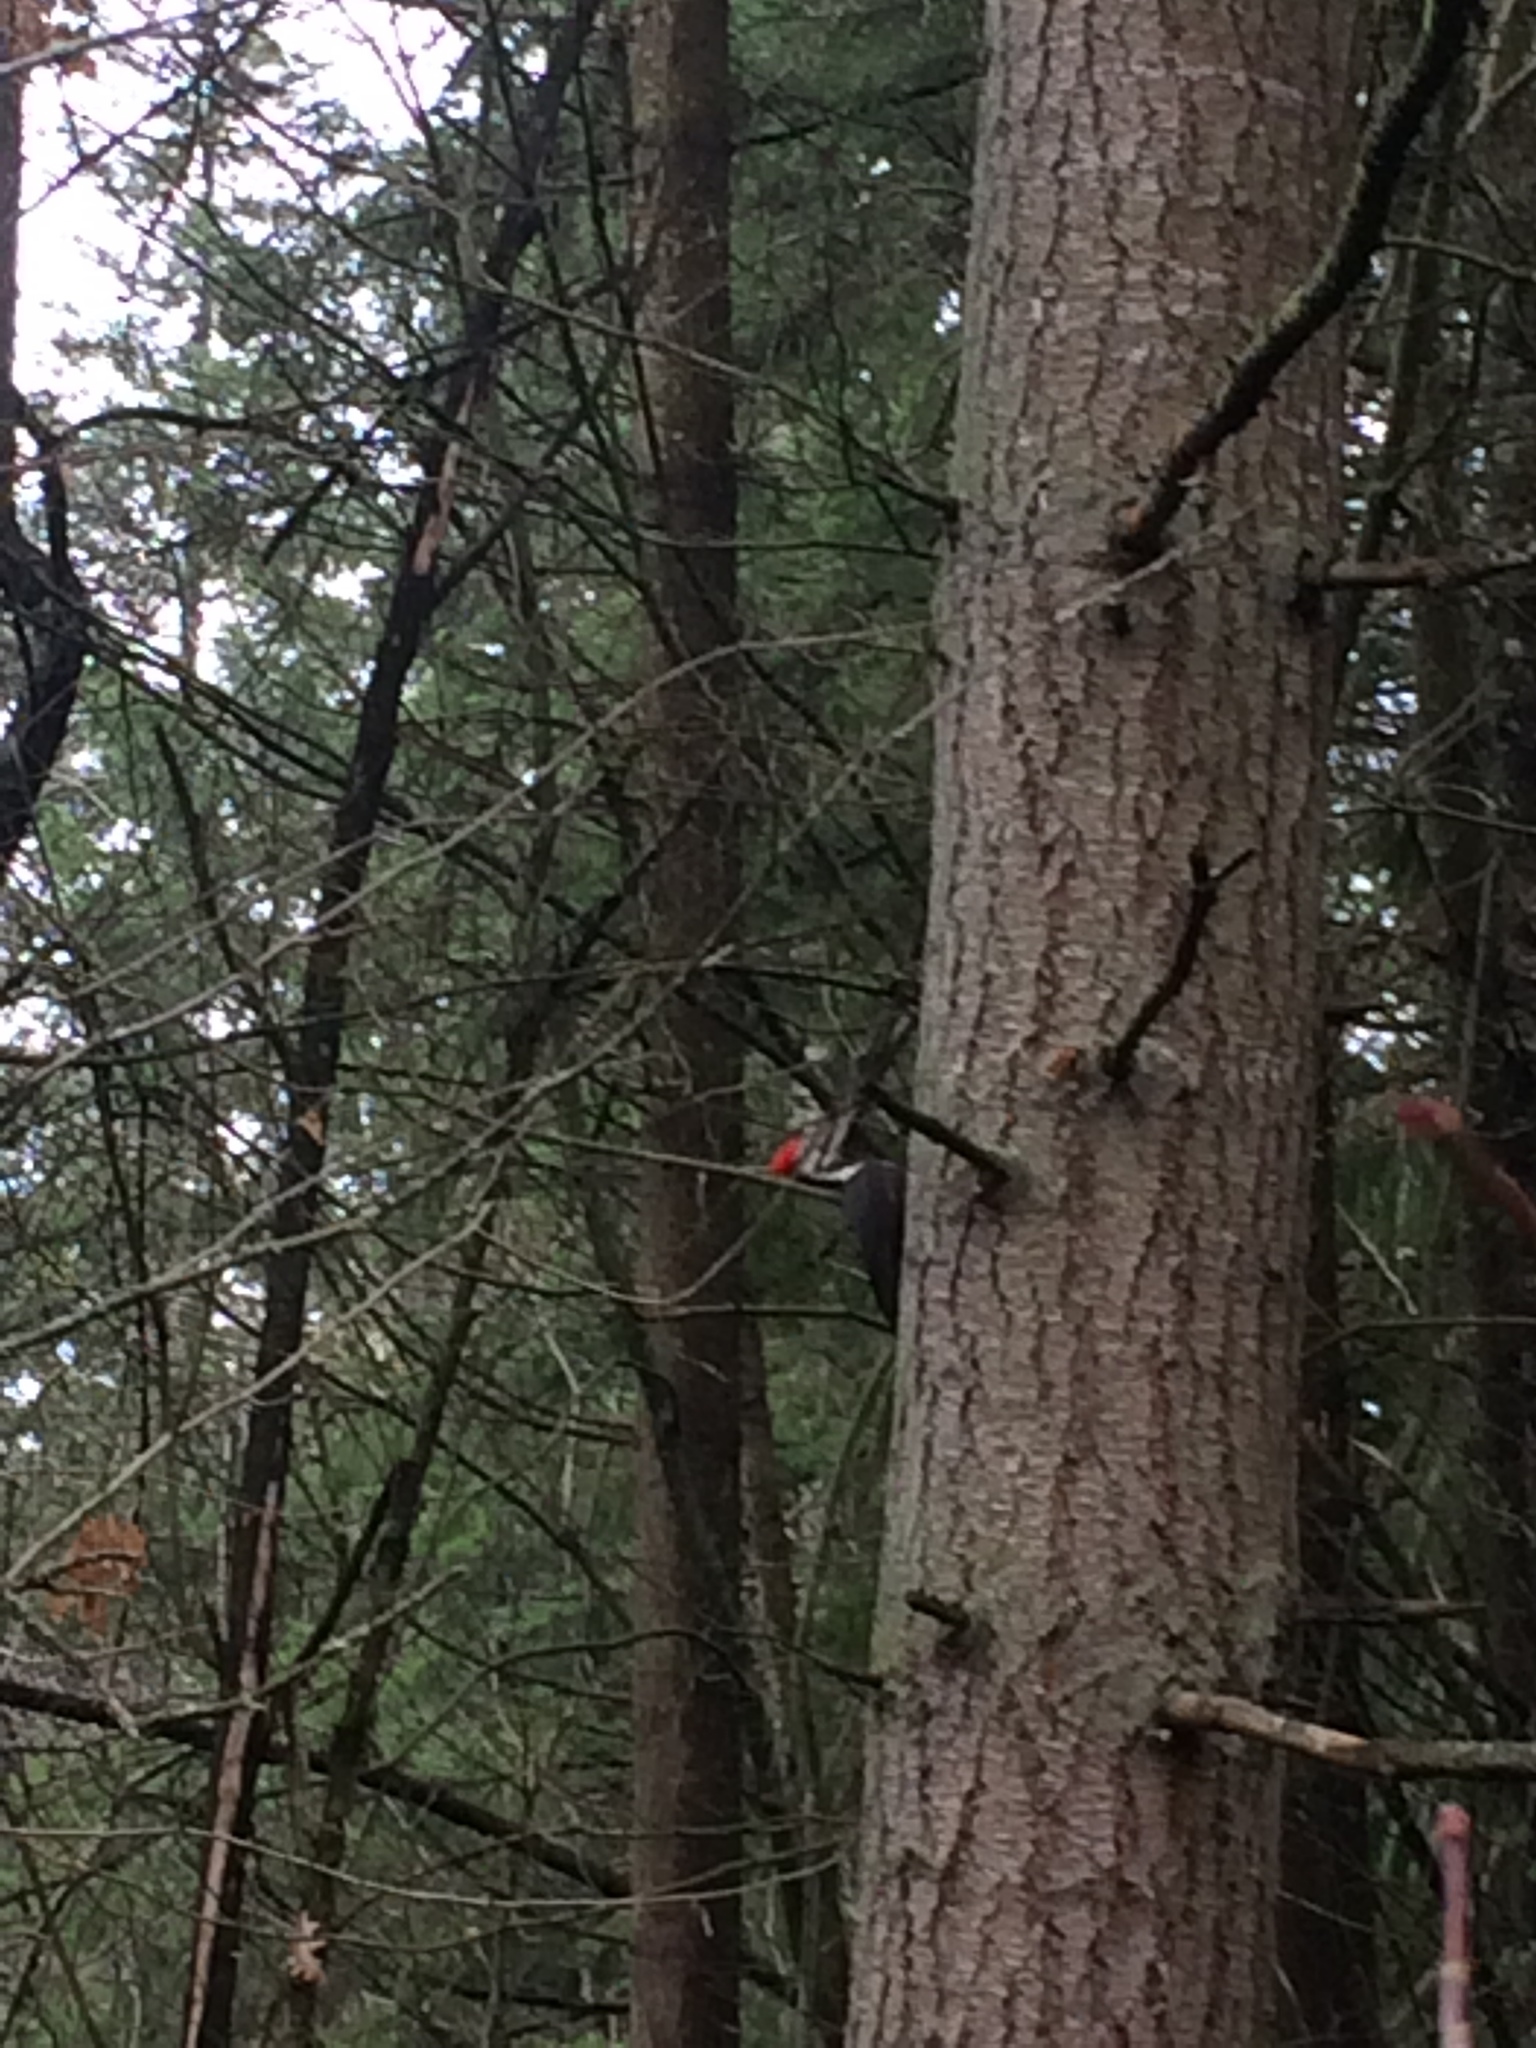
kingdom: Animalia
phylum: Chordata
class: Aves
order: Piciformes
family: Picidae
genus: Dryocopus
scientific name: Dryocopus pileatus
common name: Pileated woodpecker
